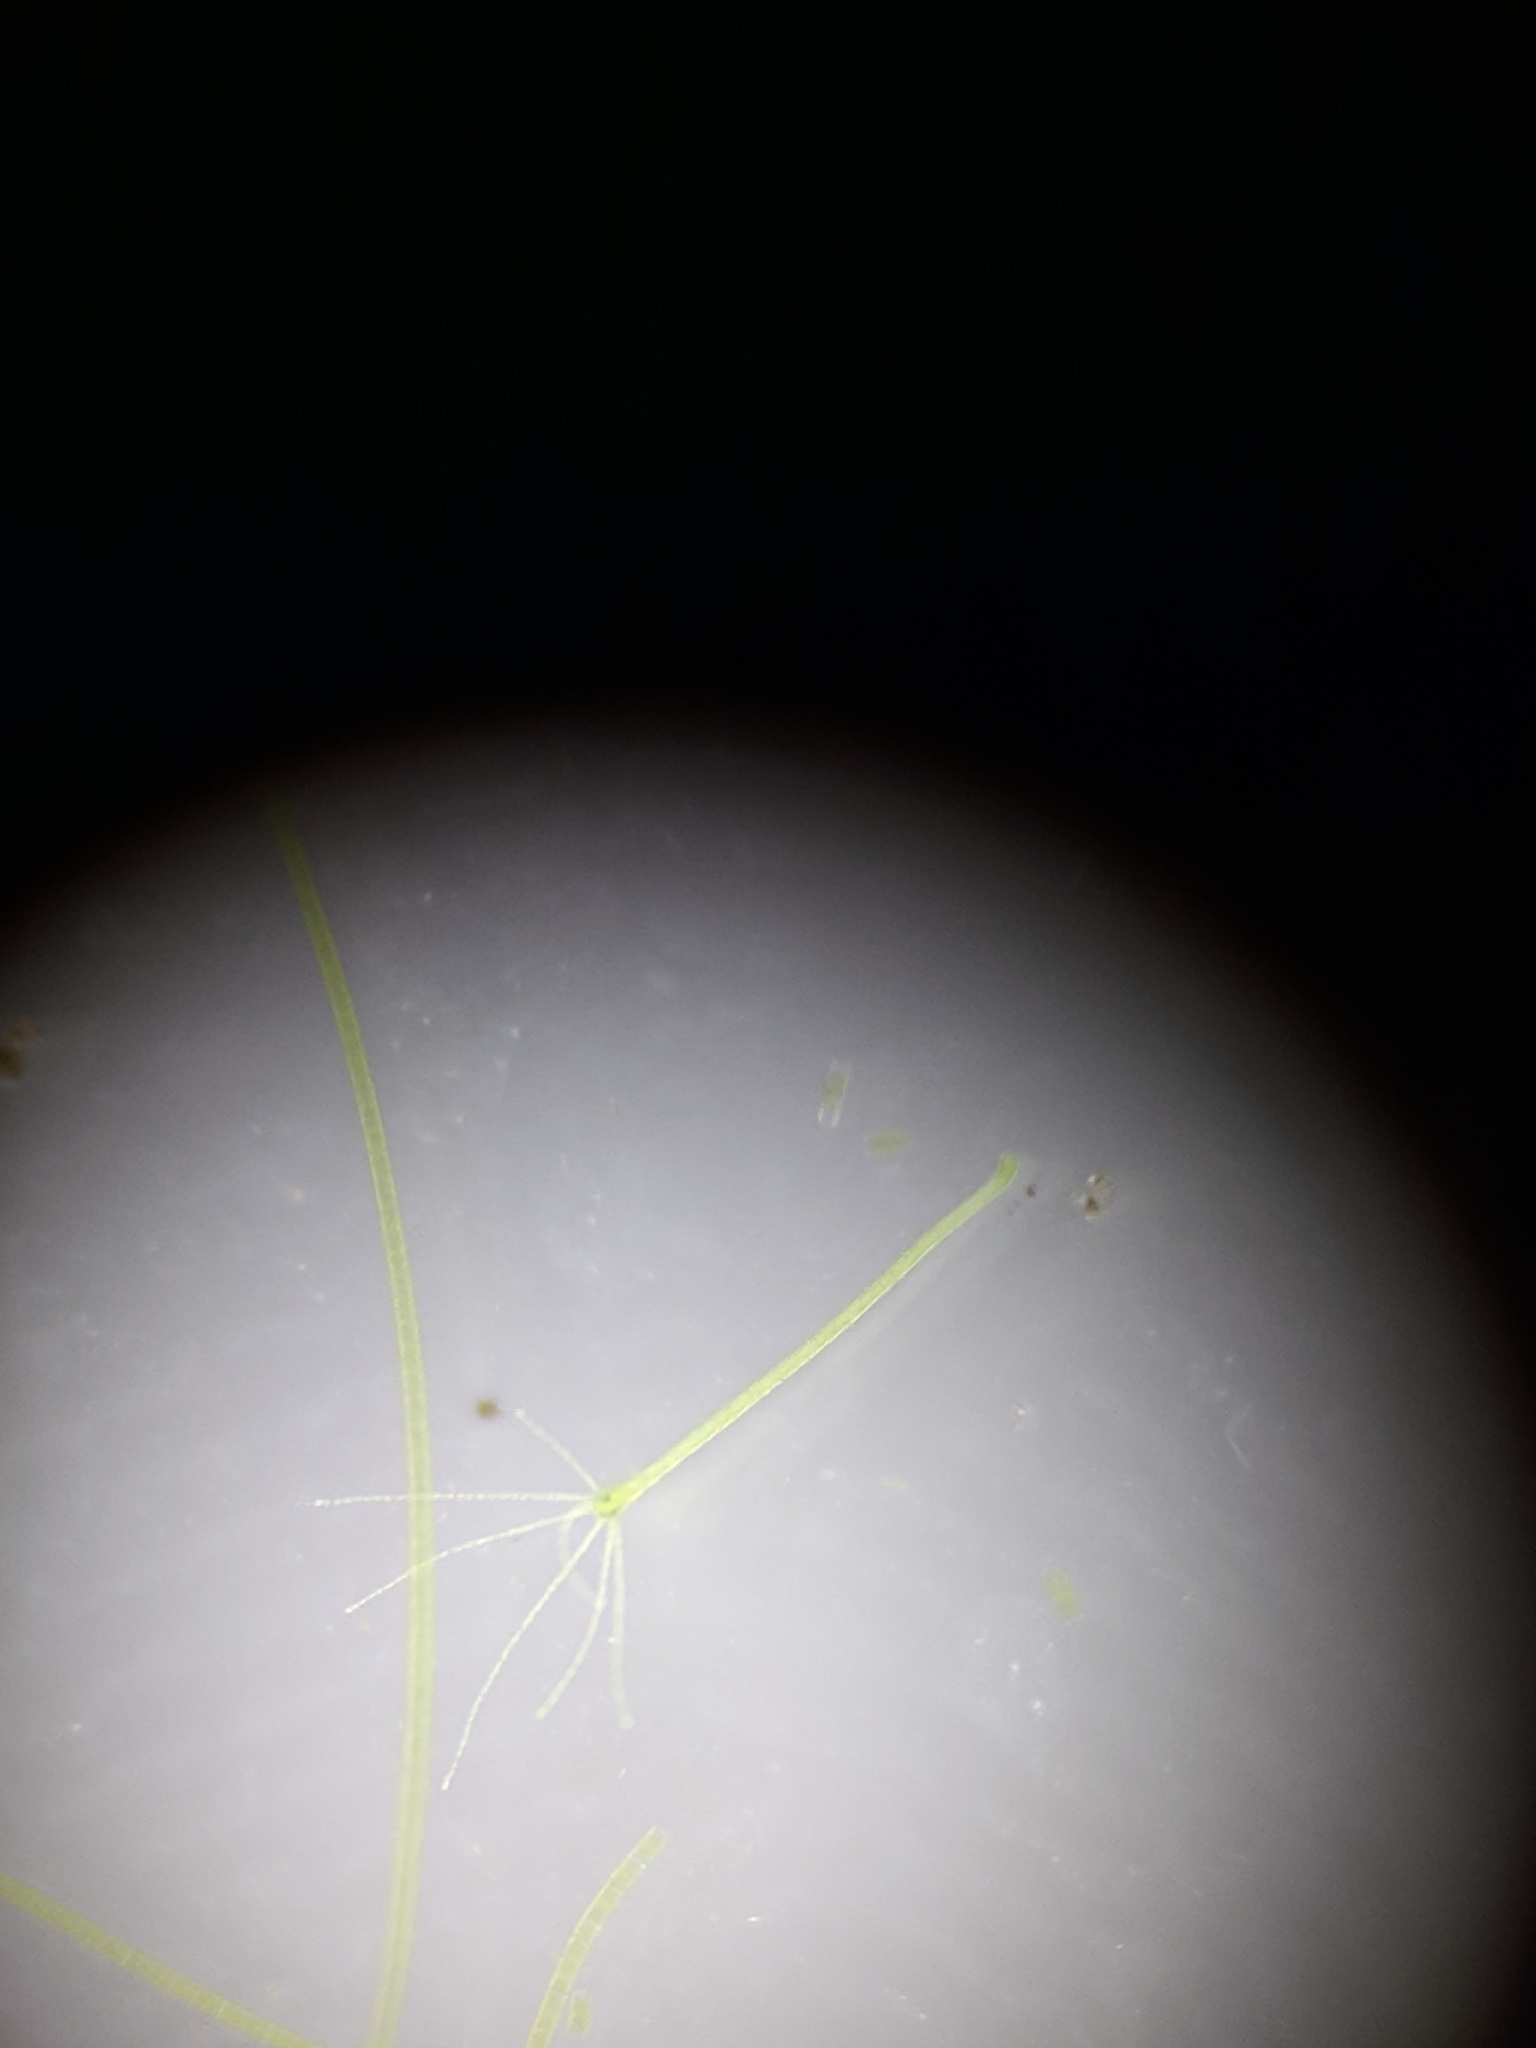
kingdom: Animalia
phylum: Cnidaria
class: Hydrozoa
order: Anthoathecata
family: Hydridae
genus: Hydra
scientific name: Hydra viridissima
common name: Green hydra
